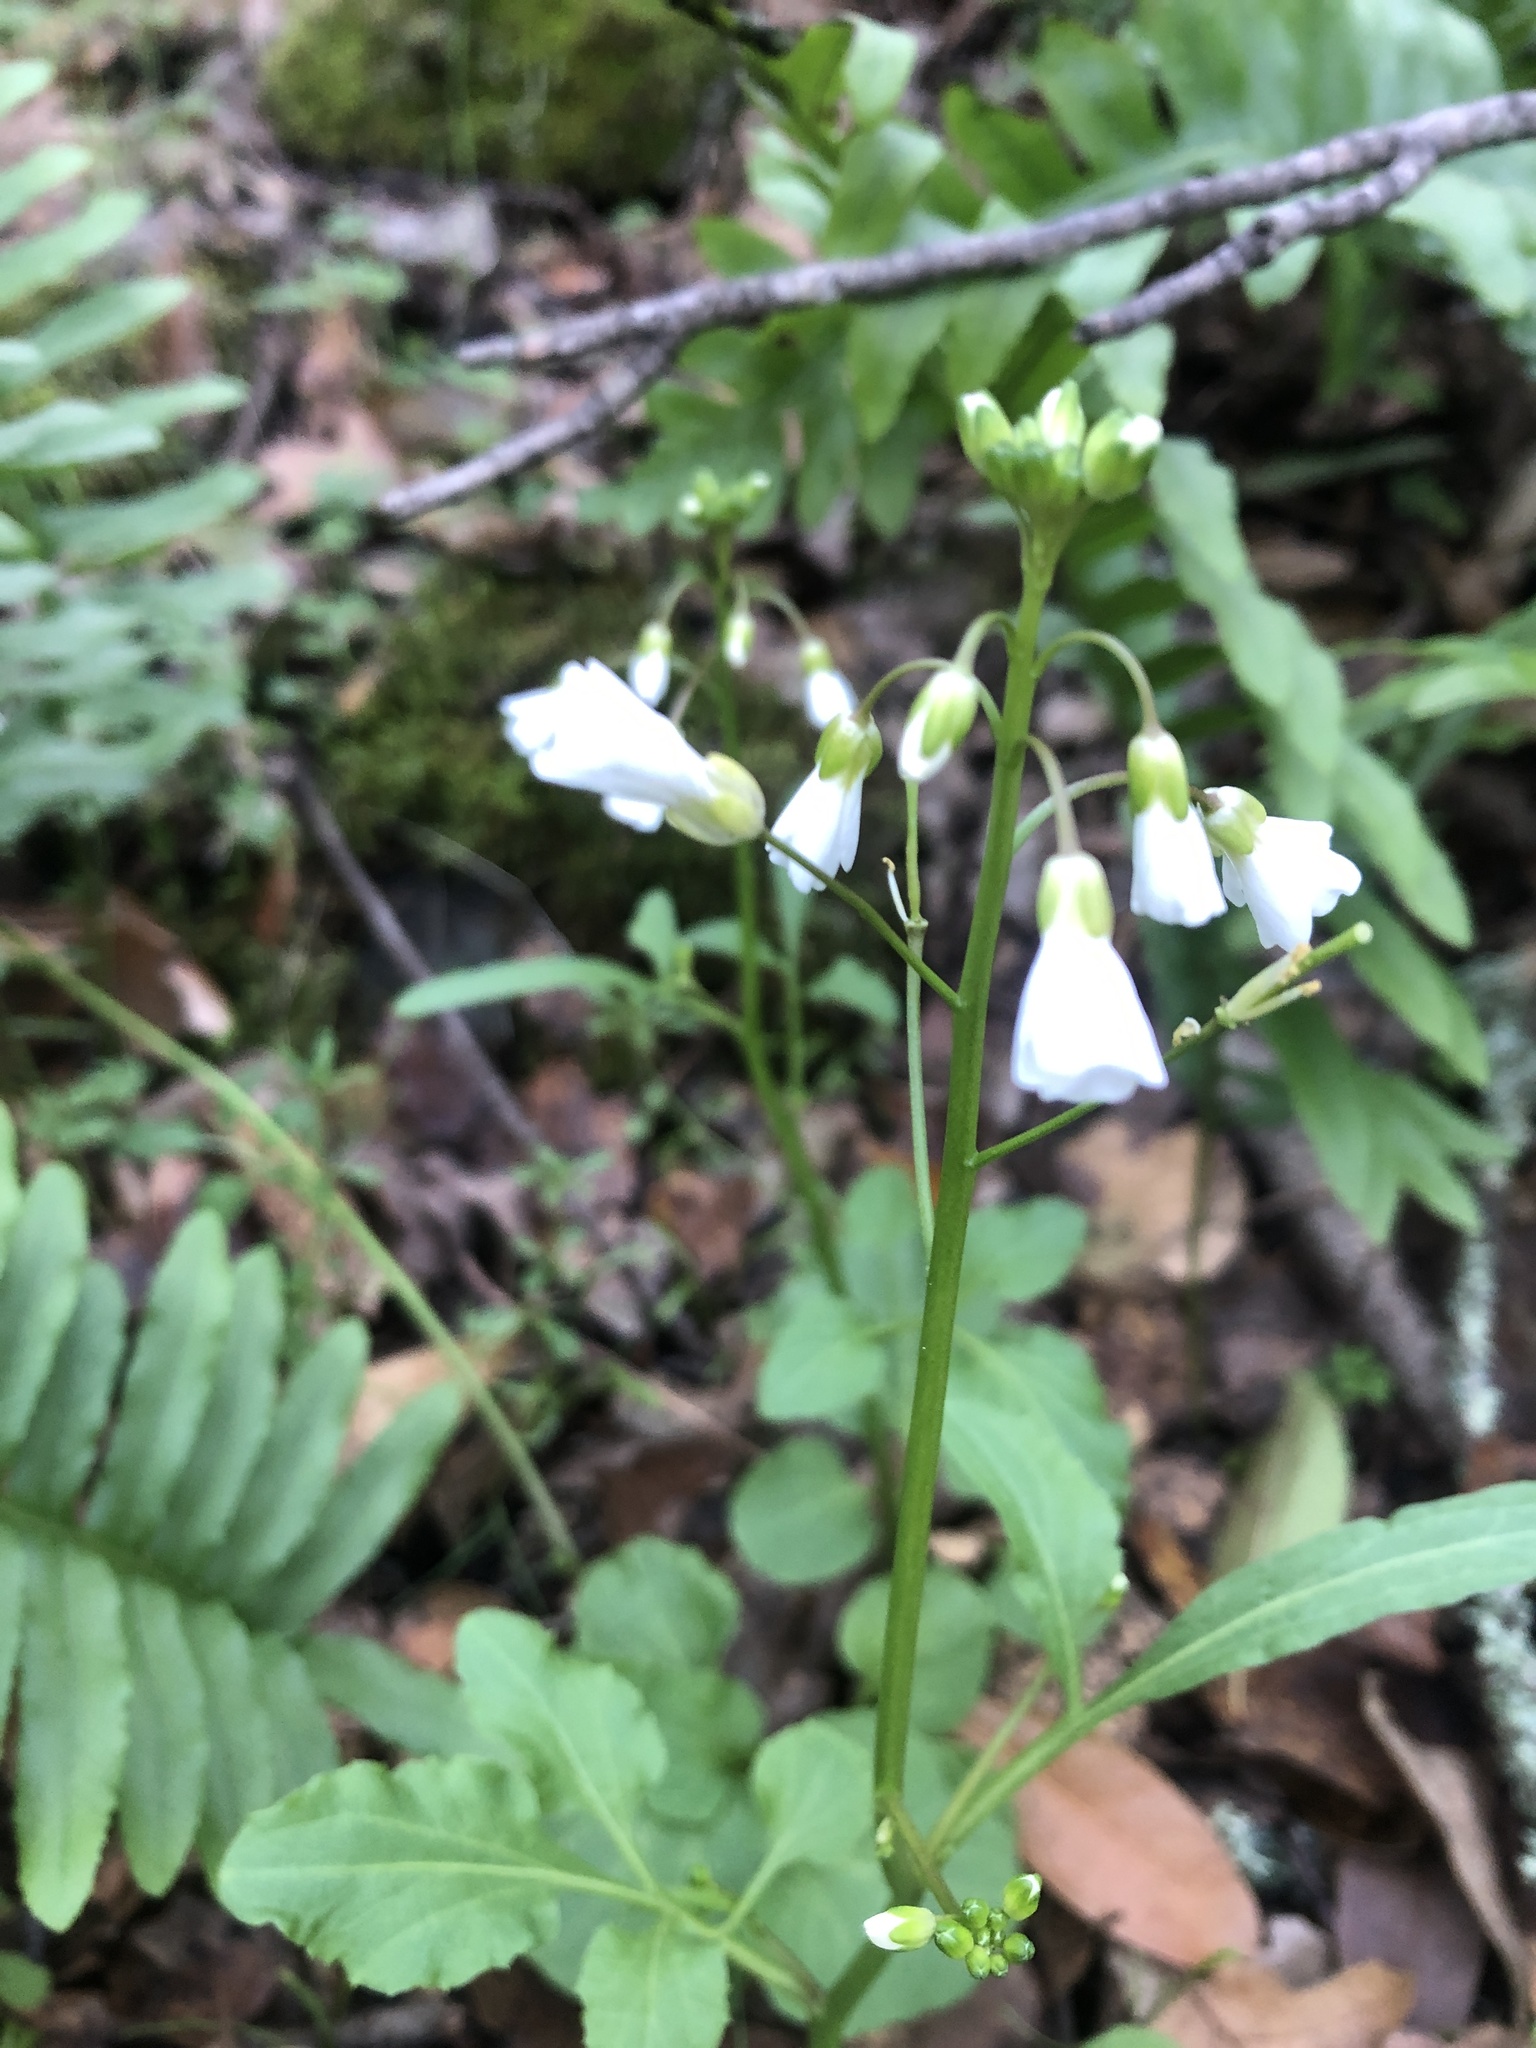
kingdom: Plantae
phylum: Tracheophyta
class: Magnoliopsida
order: Brassicales
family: Brassicaceae
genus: Cardamine
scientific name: Cardamine californica
